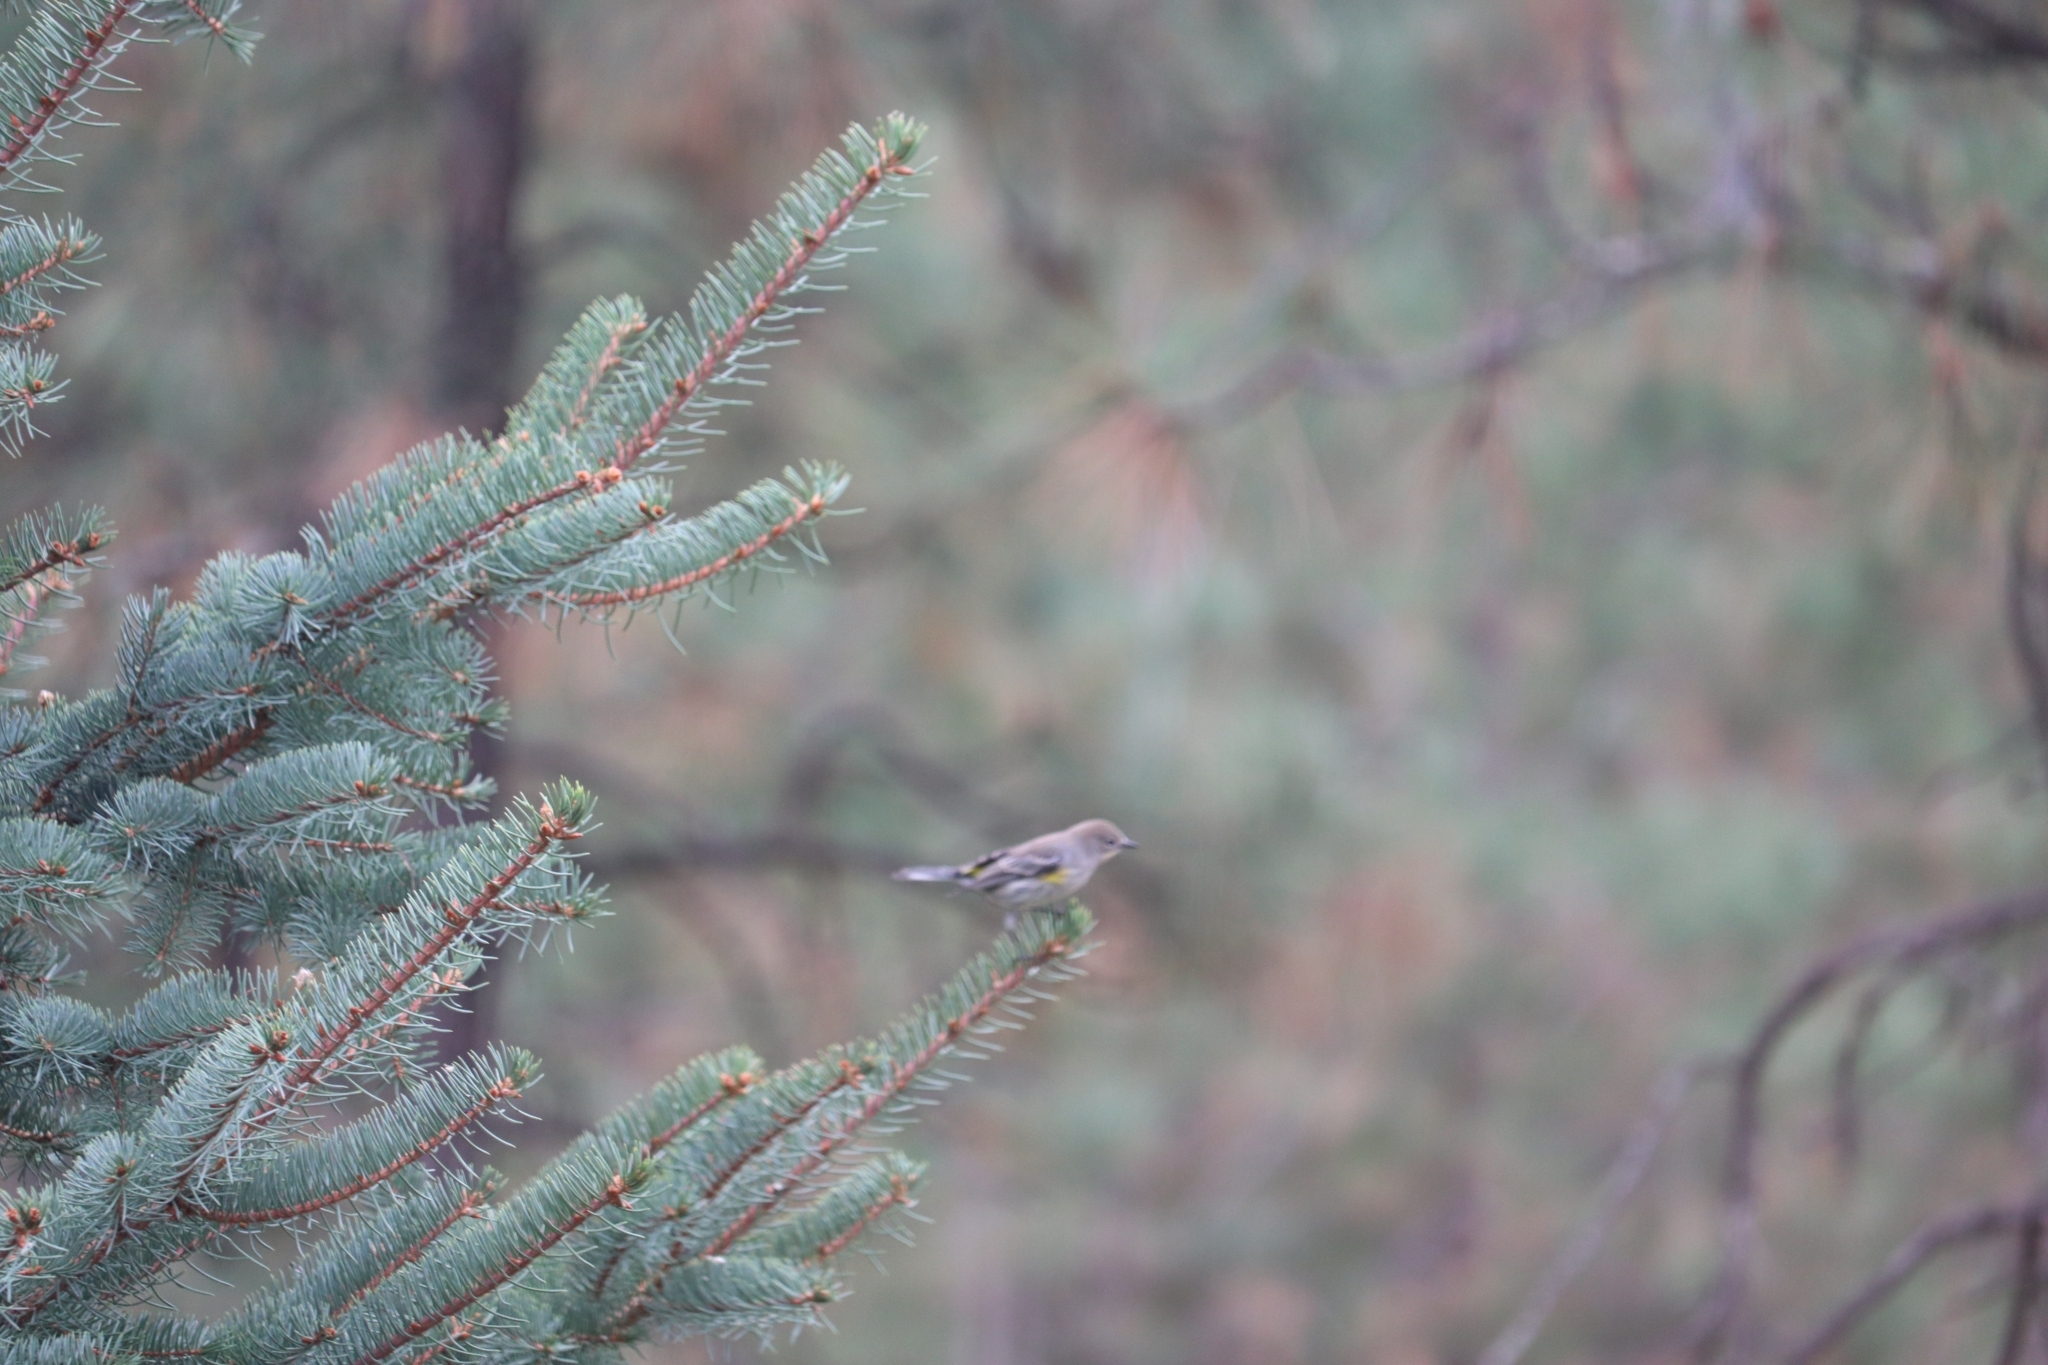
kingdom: Animalia
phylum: Chordata
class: Aves
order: Passeriformes
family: Parulidae
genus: Setophaga
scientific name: Setophaga coronata
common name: Myrtle warbler
